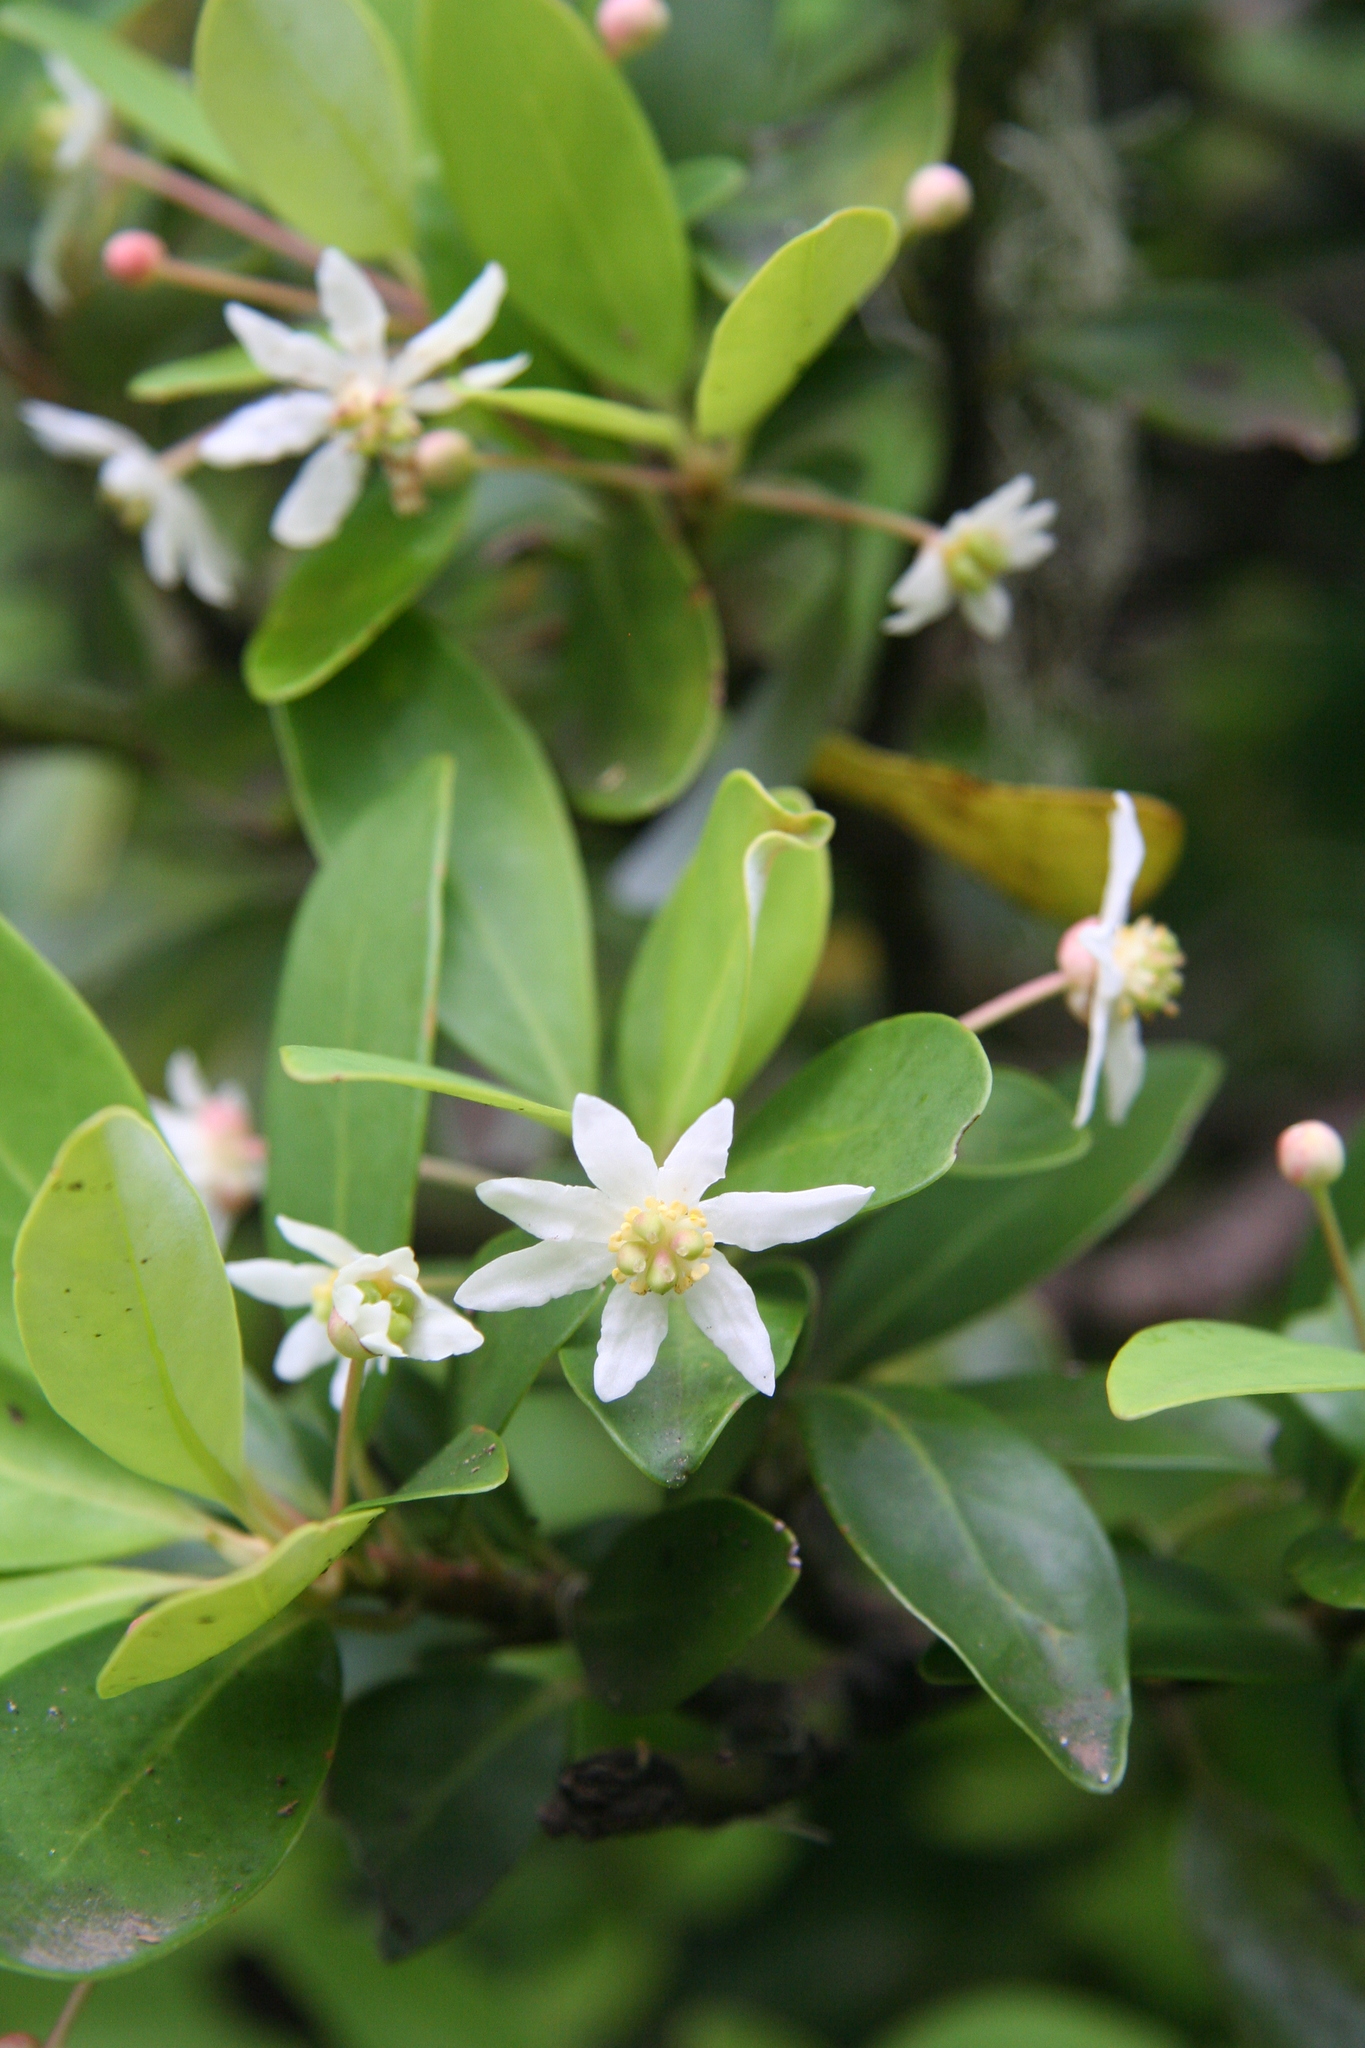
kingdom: Plantae
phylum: Tracheophyta
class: Magnoliopsida
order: Canellales
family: Winteraceae
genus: Drimys
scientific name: Drimys winteri
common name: Winter's-bark
